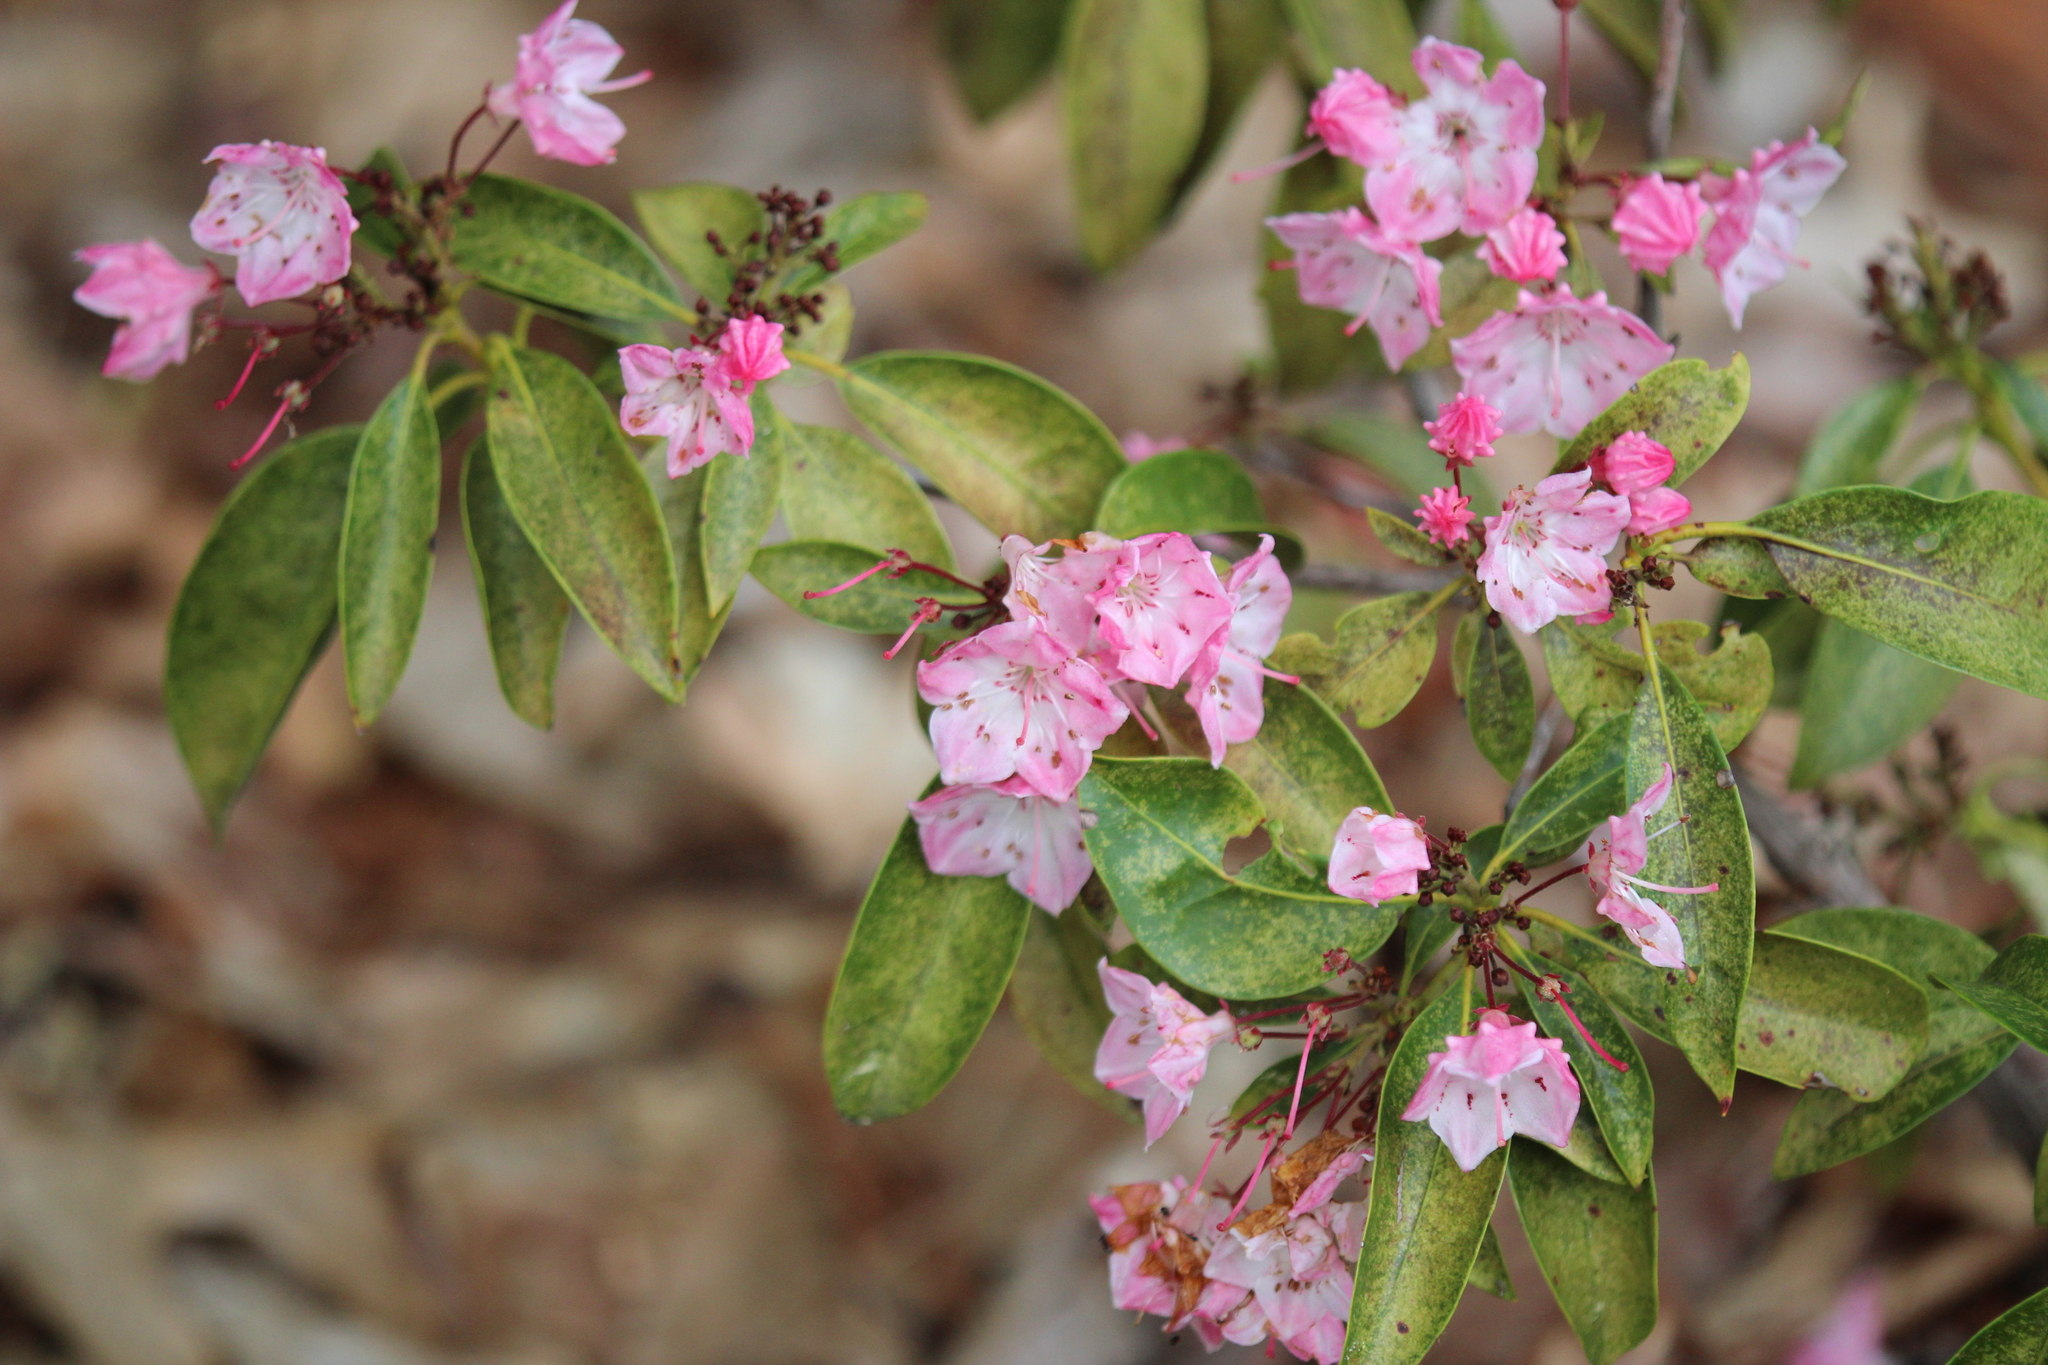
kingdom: Plantae
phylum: Tracheophyta
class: Magnoliopsida
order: Ericales
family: Ericaceae
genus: Kalmia
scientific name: Kalmia latifolia
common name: Mountain-laurel
